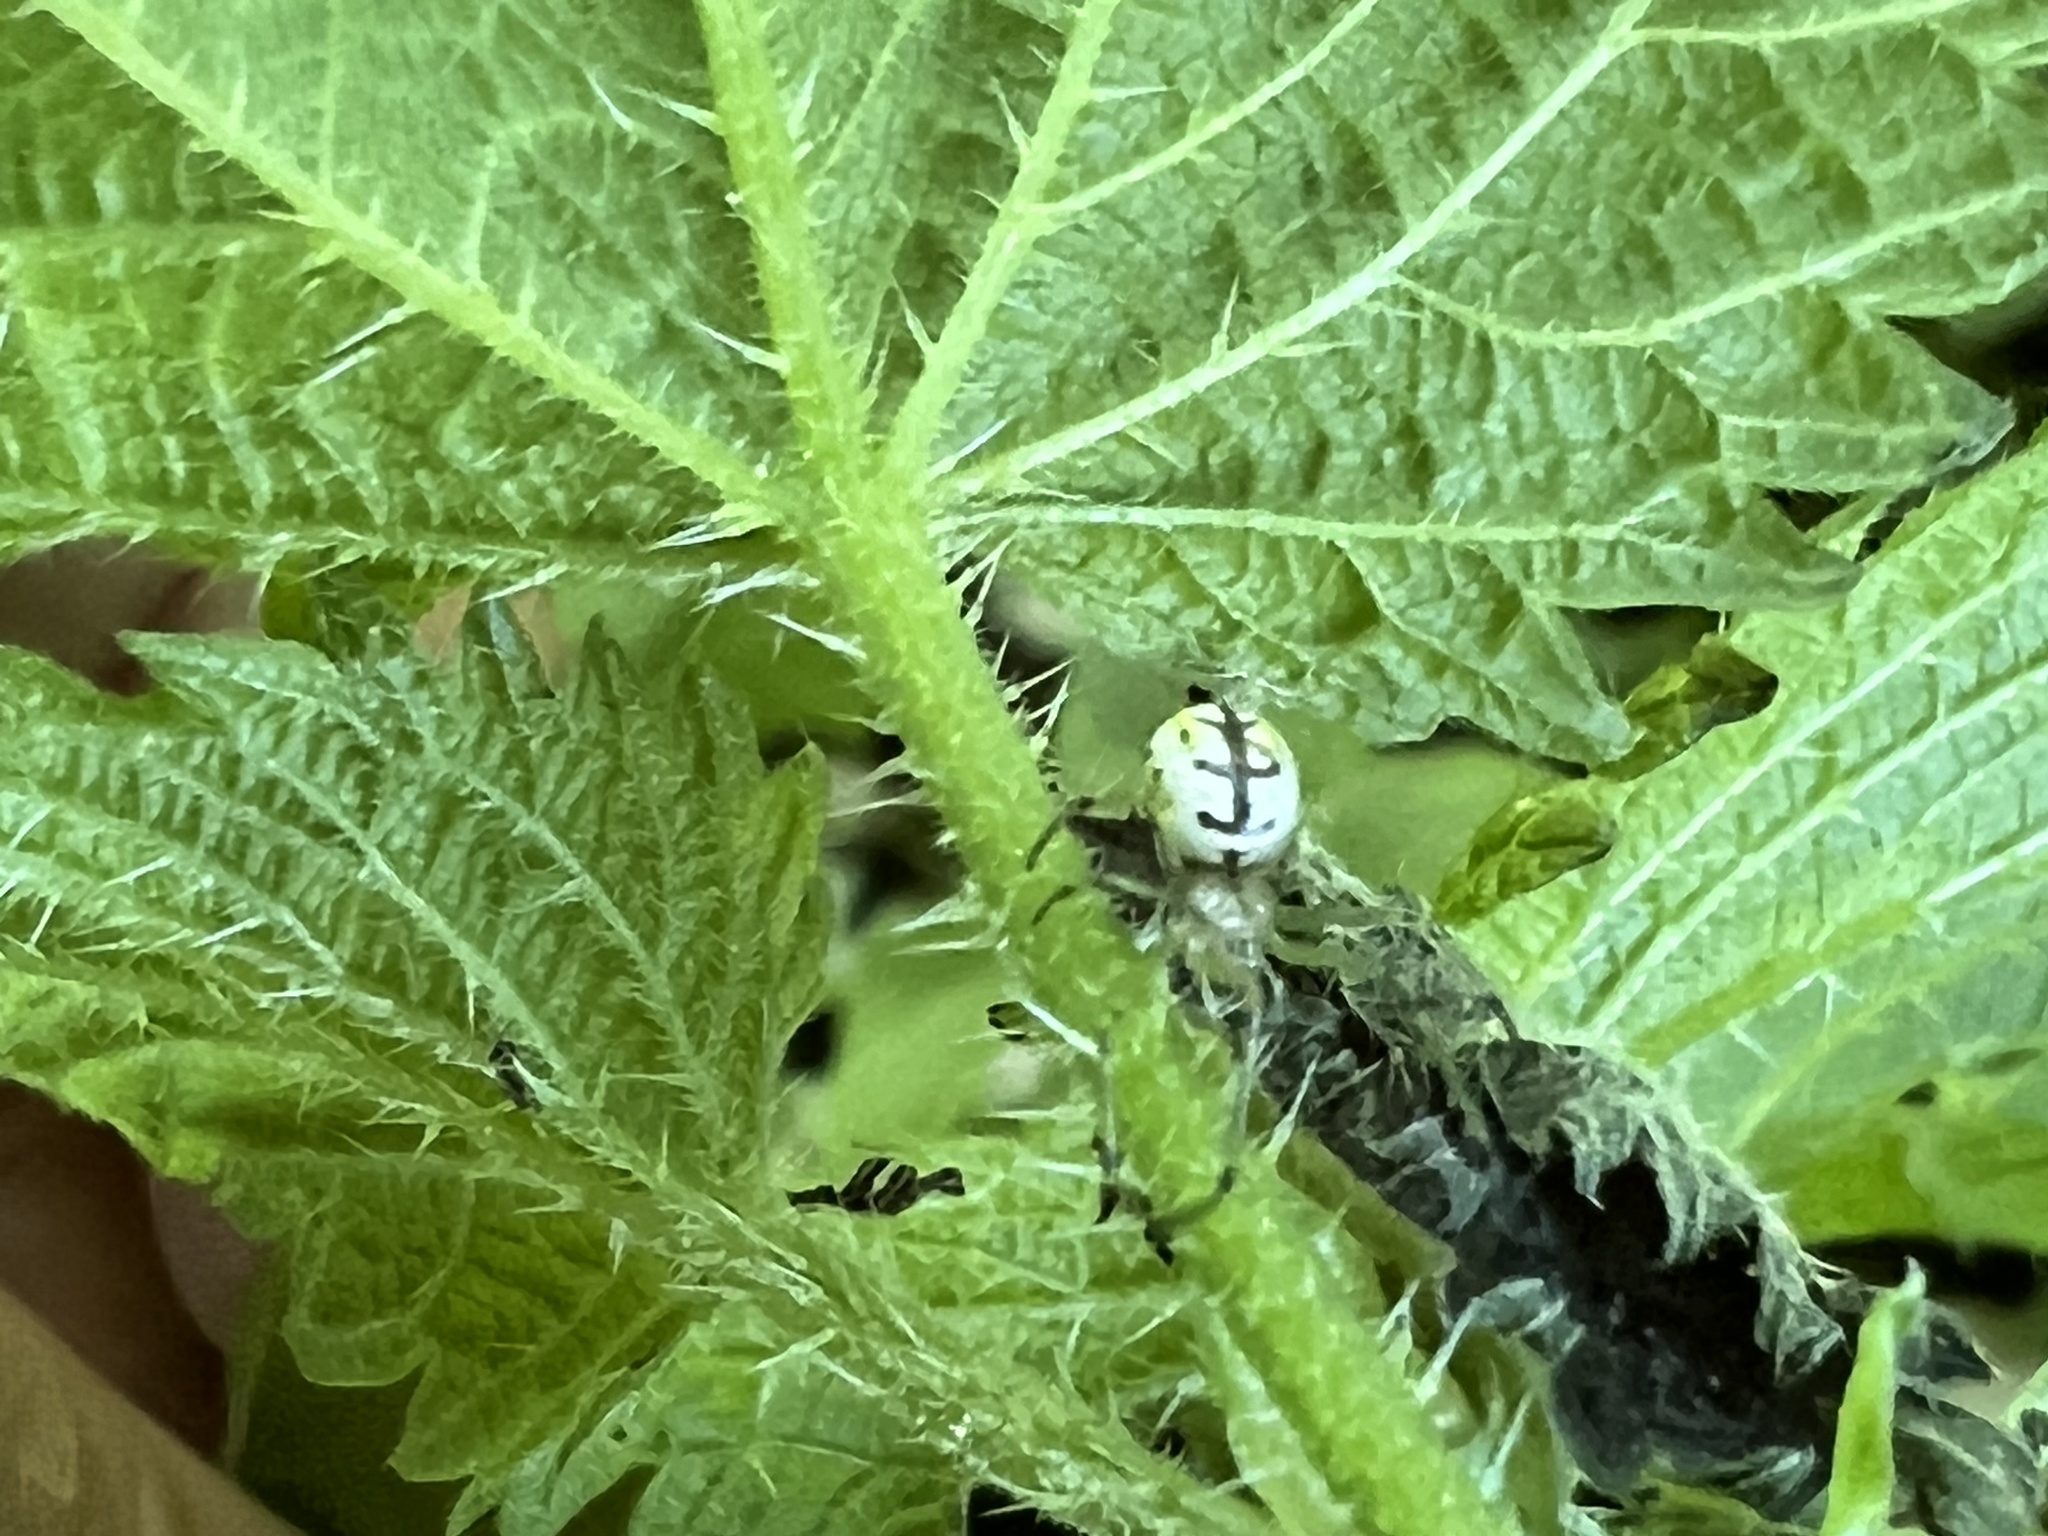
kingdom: Animalia
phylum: Arthropoda
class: Arachnida
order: Araneae
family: Tetragnathidae
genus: Leucauge
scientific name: Leucauge venusta
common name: Longjawed orb weavers
